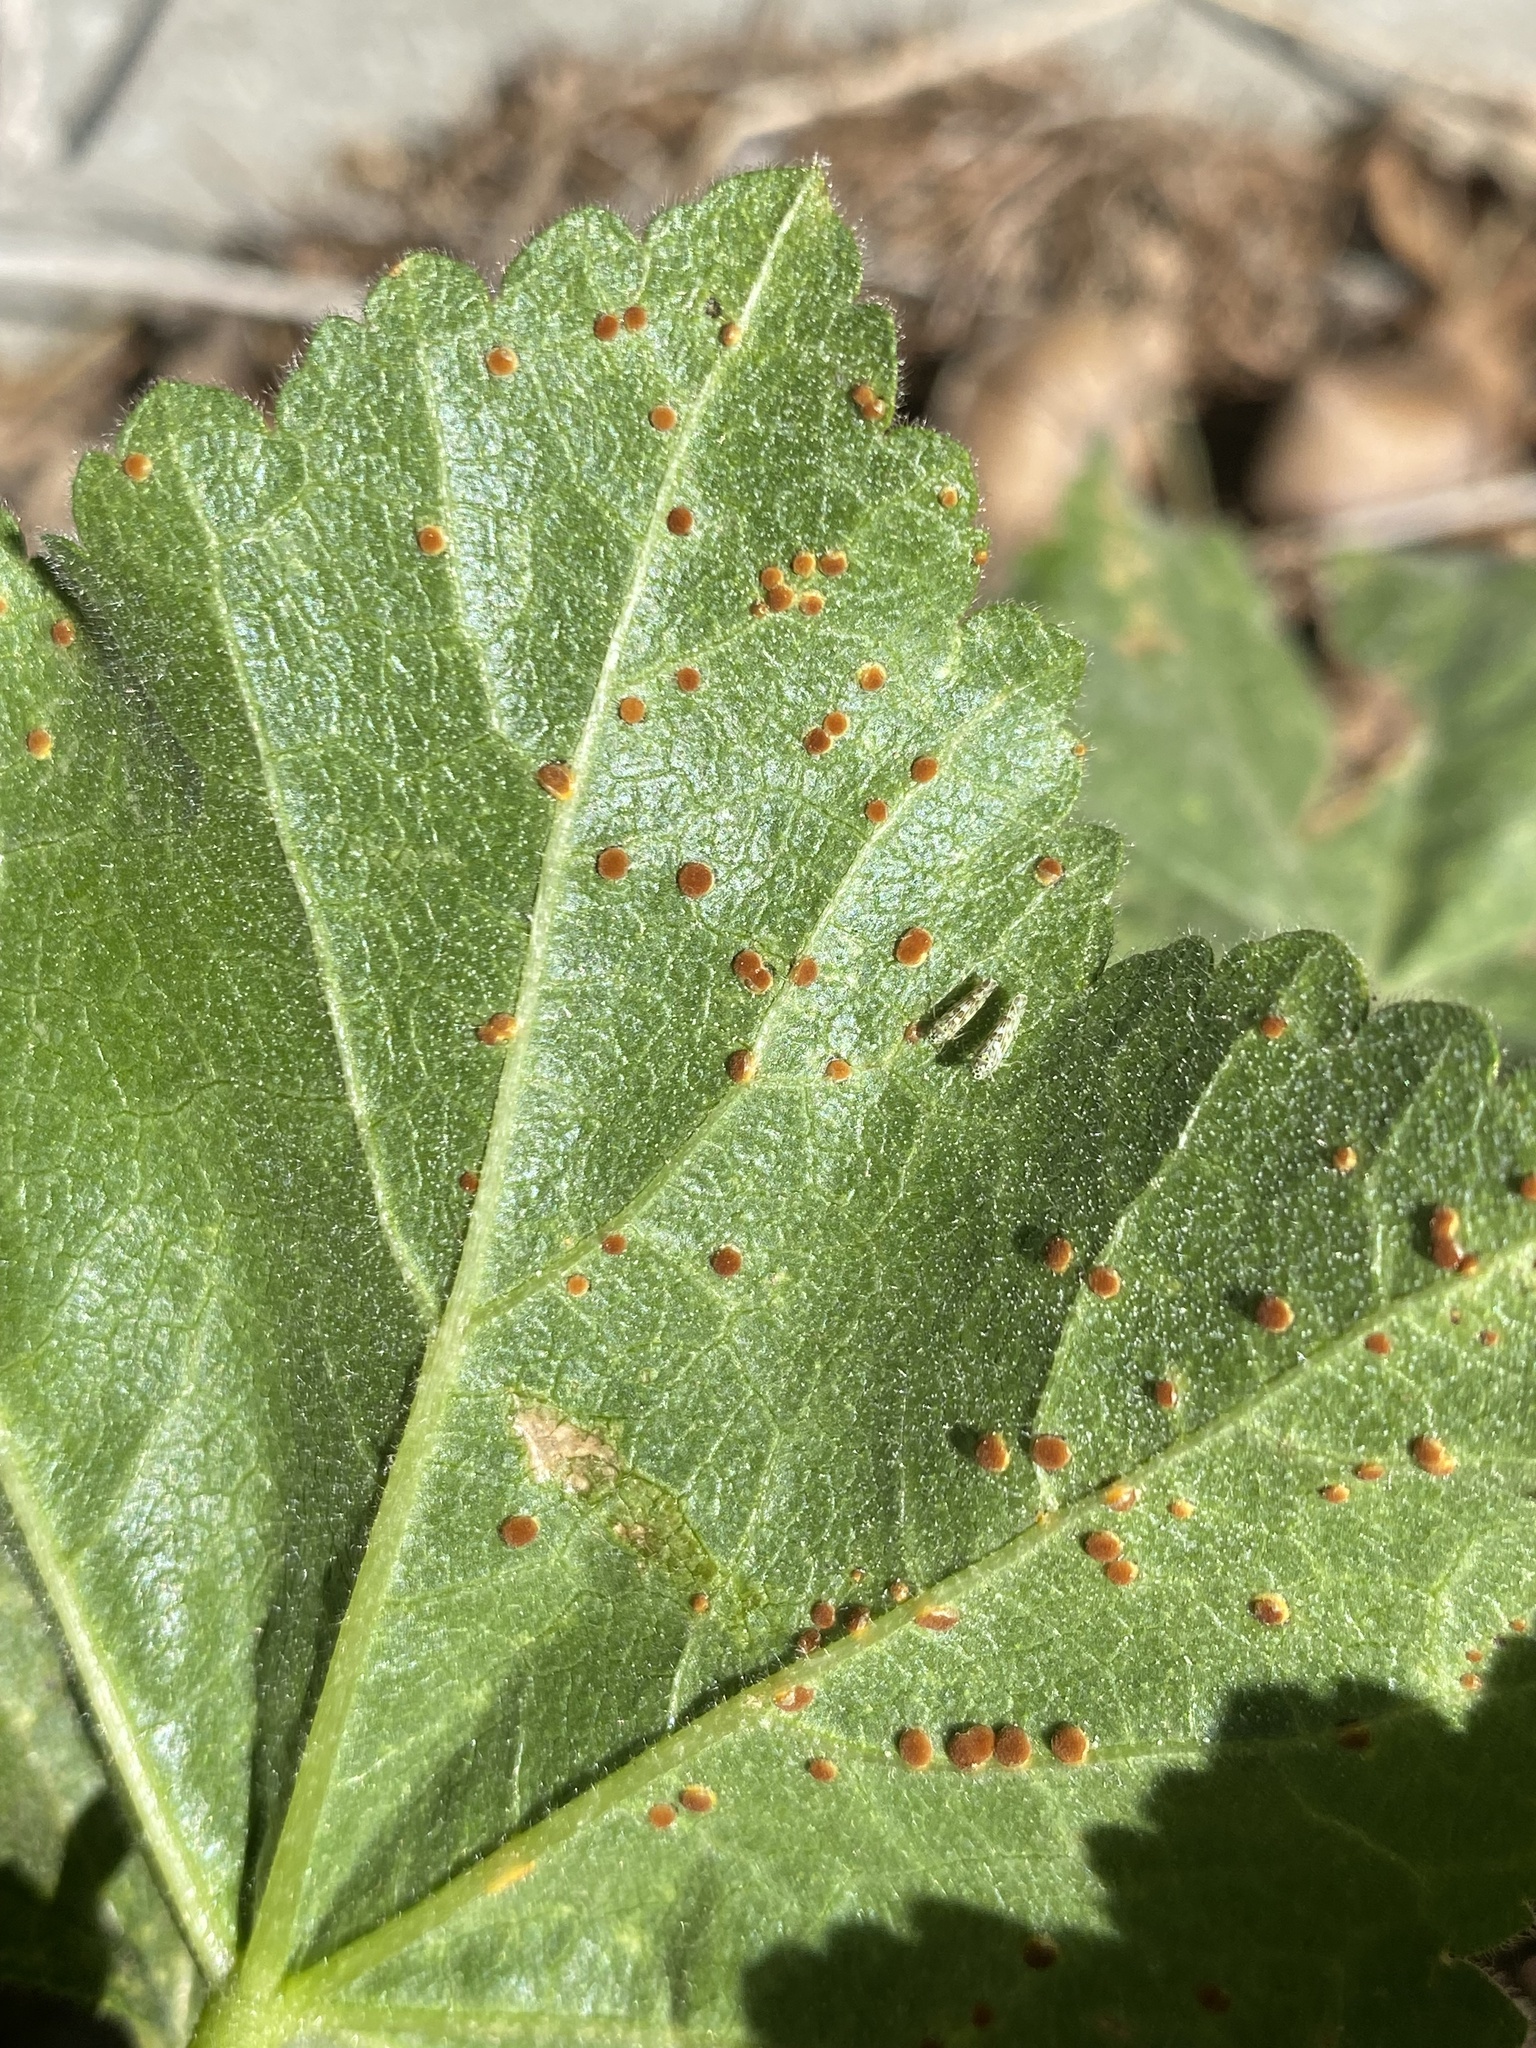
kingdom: Fungi
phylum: Basidiomycota
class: Pucciniomycetes
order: Pucciniales
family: Pucciniaceae
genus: Puccinia
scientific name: Puccinia malvacearum
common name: Hollyhock rust
